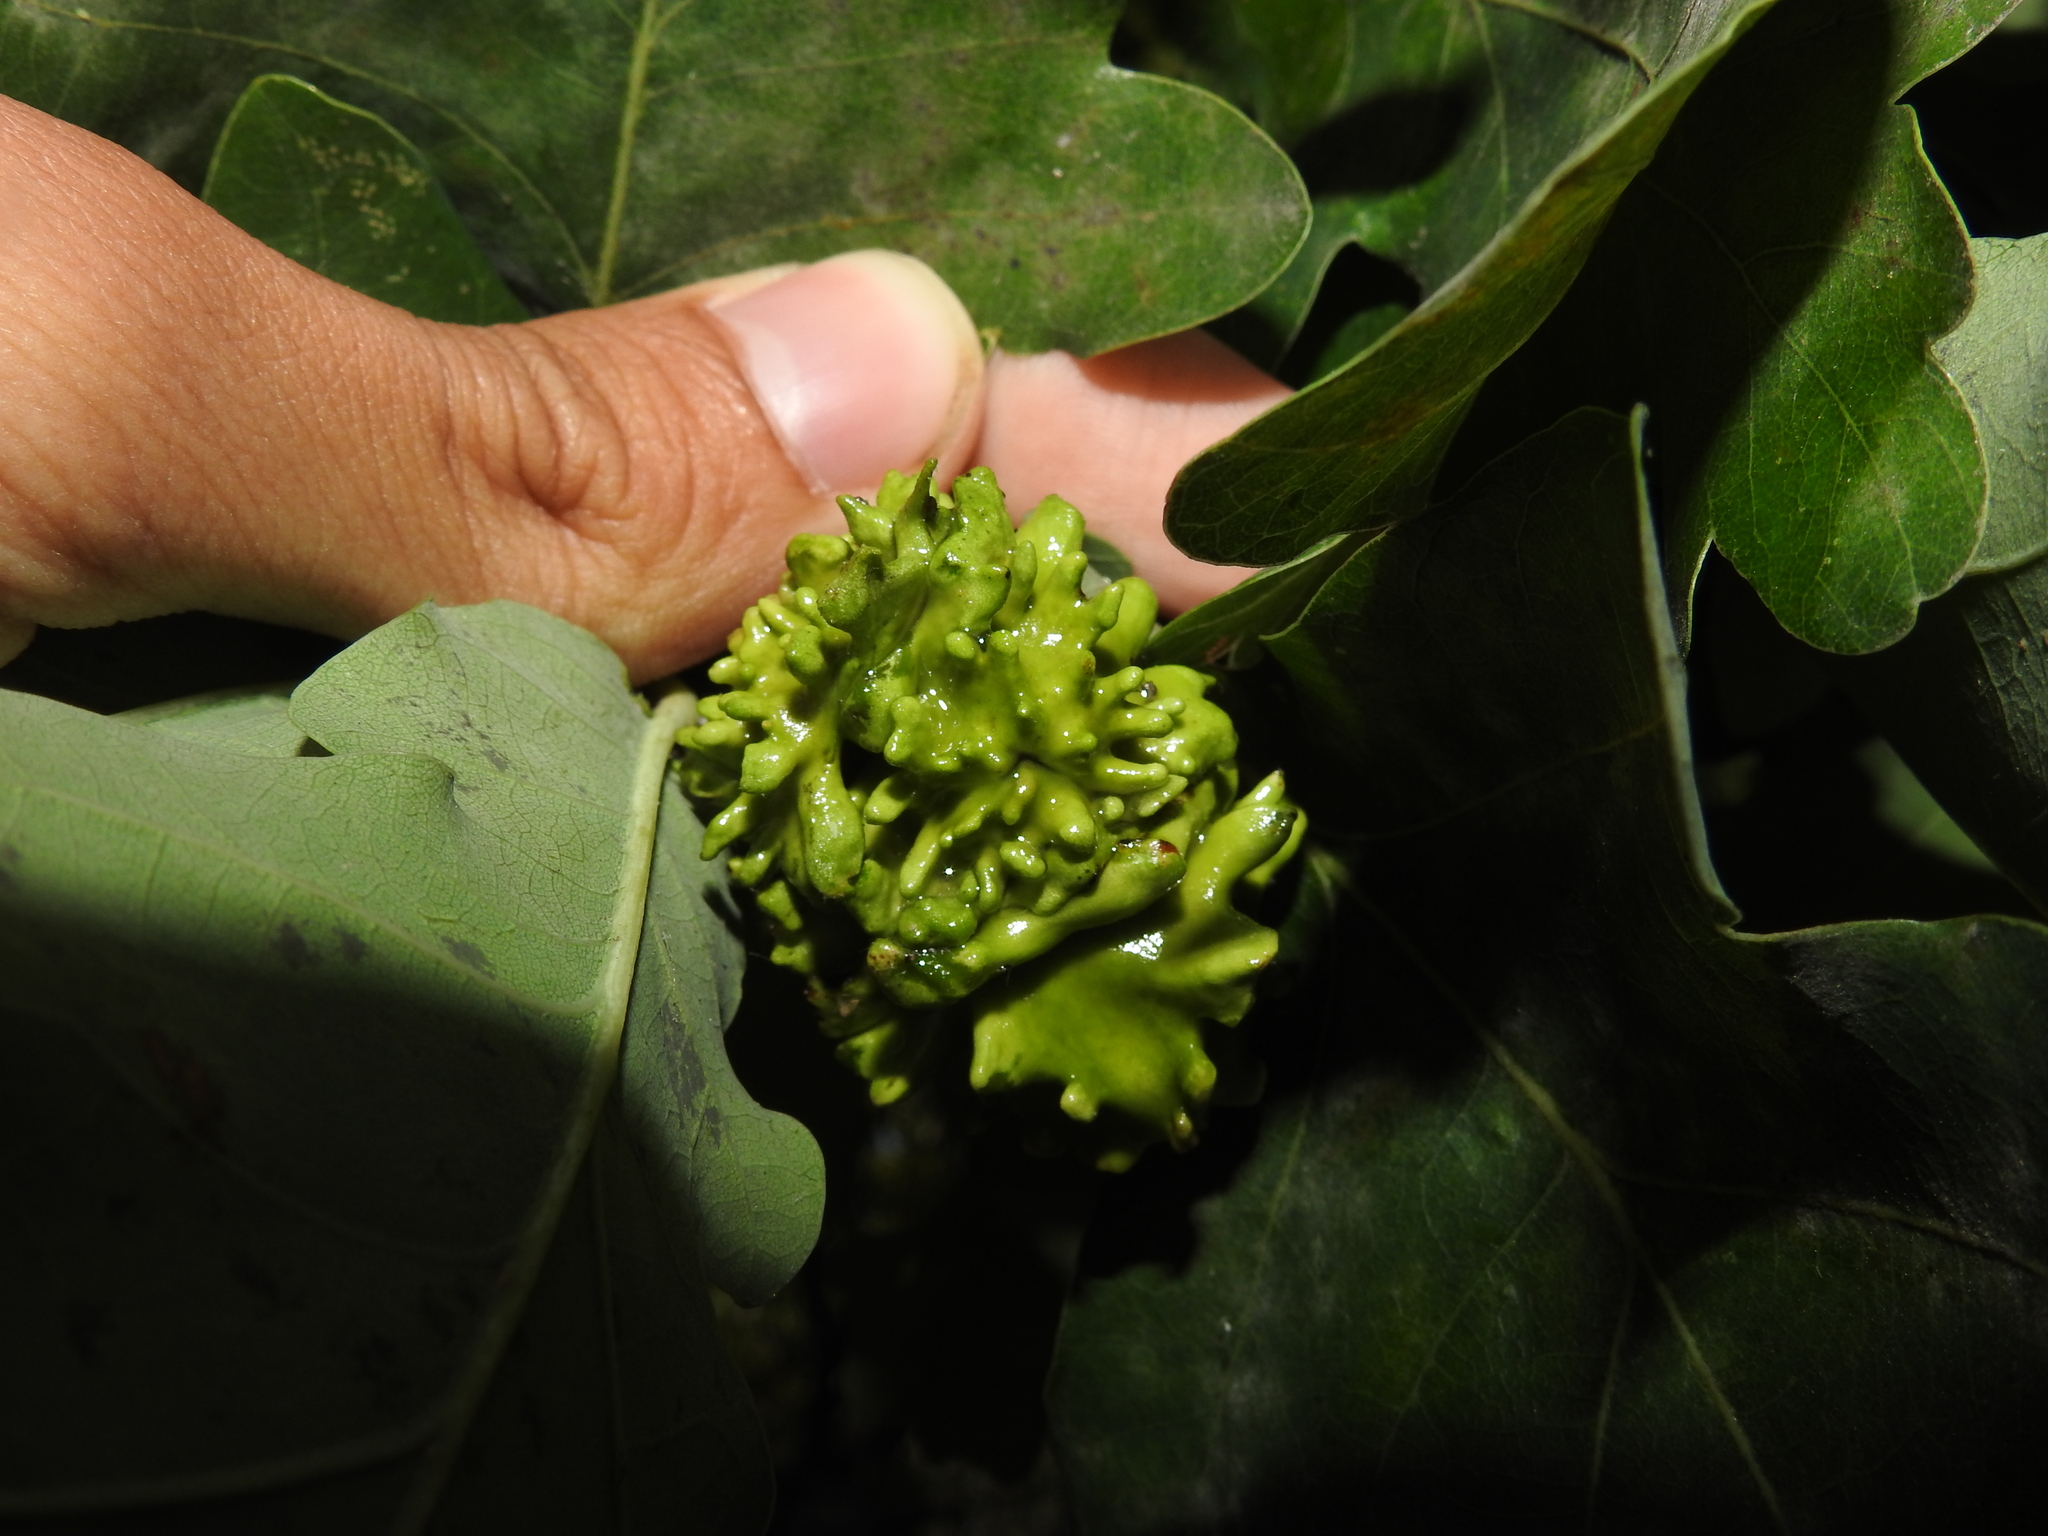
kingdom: Animalia
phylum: Arthropoda
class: Insecta
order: Hymenoptera
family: Cynipidae
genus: Andricus
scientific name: Andricus quercuscalicis
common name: Knopper gall
